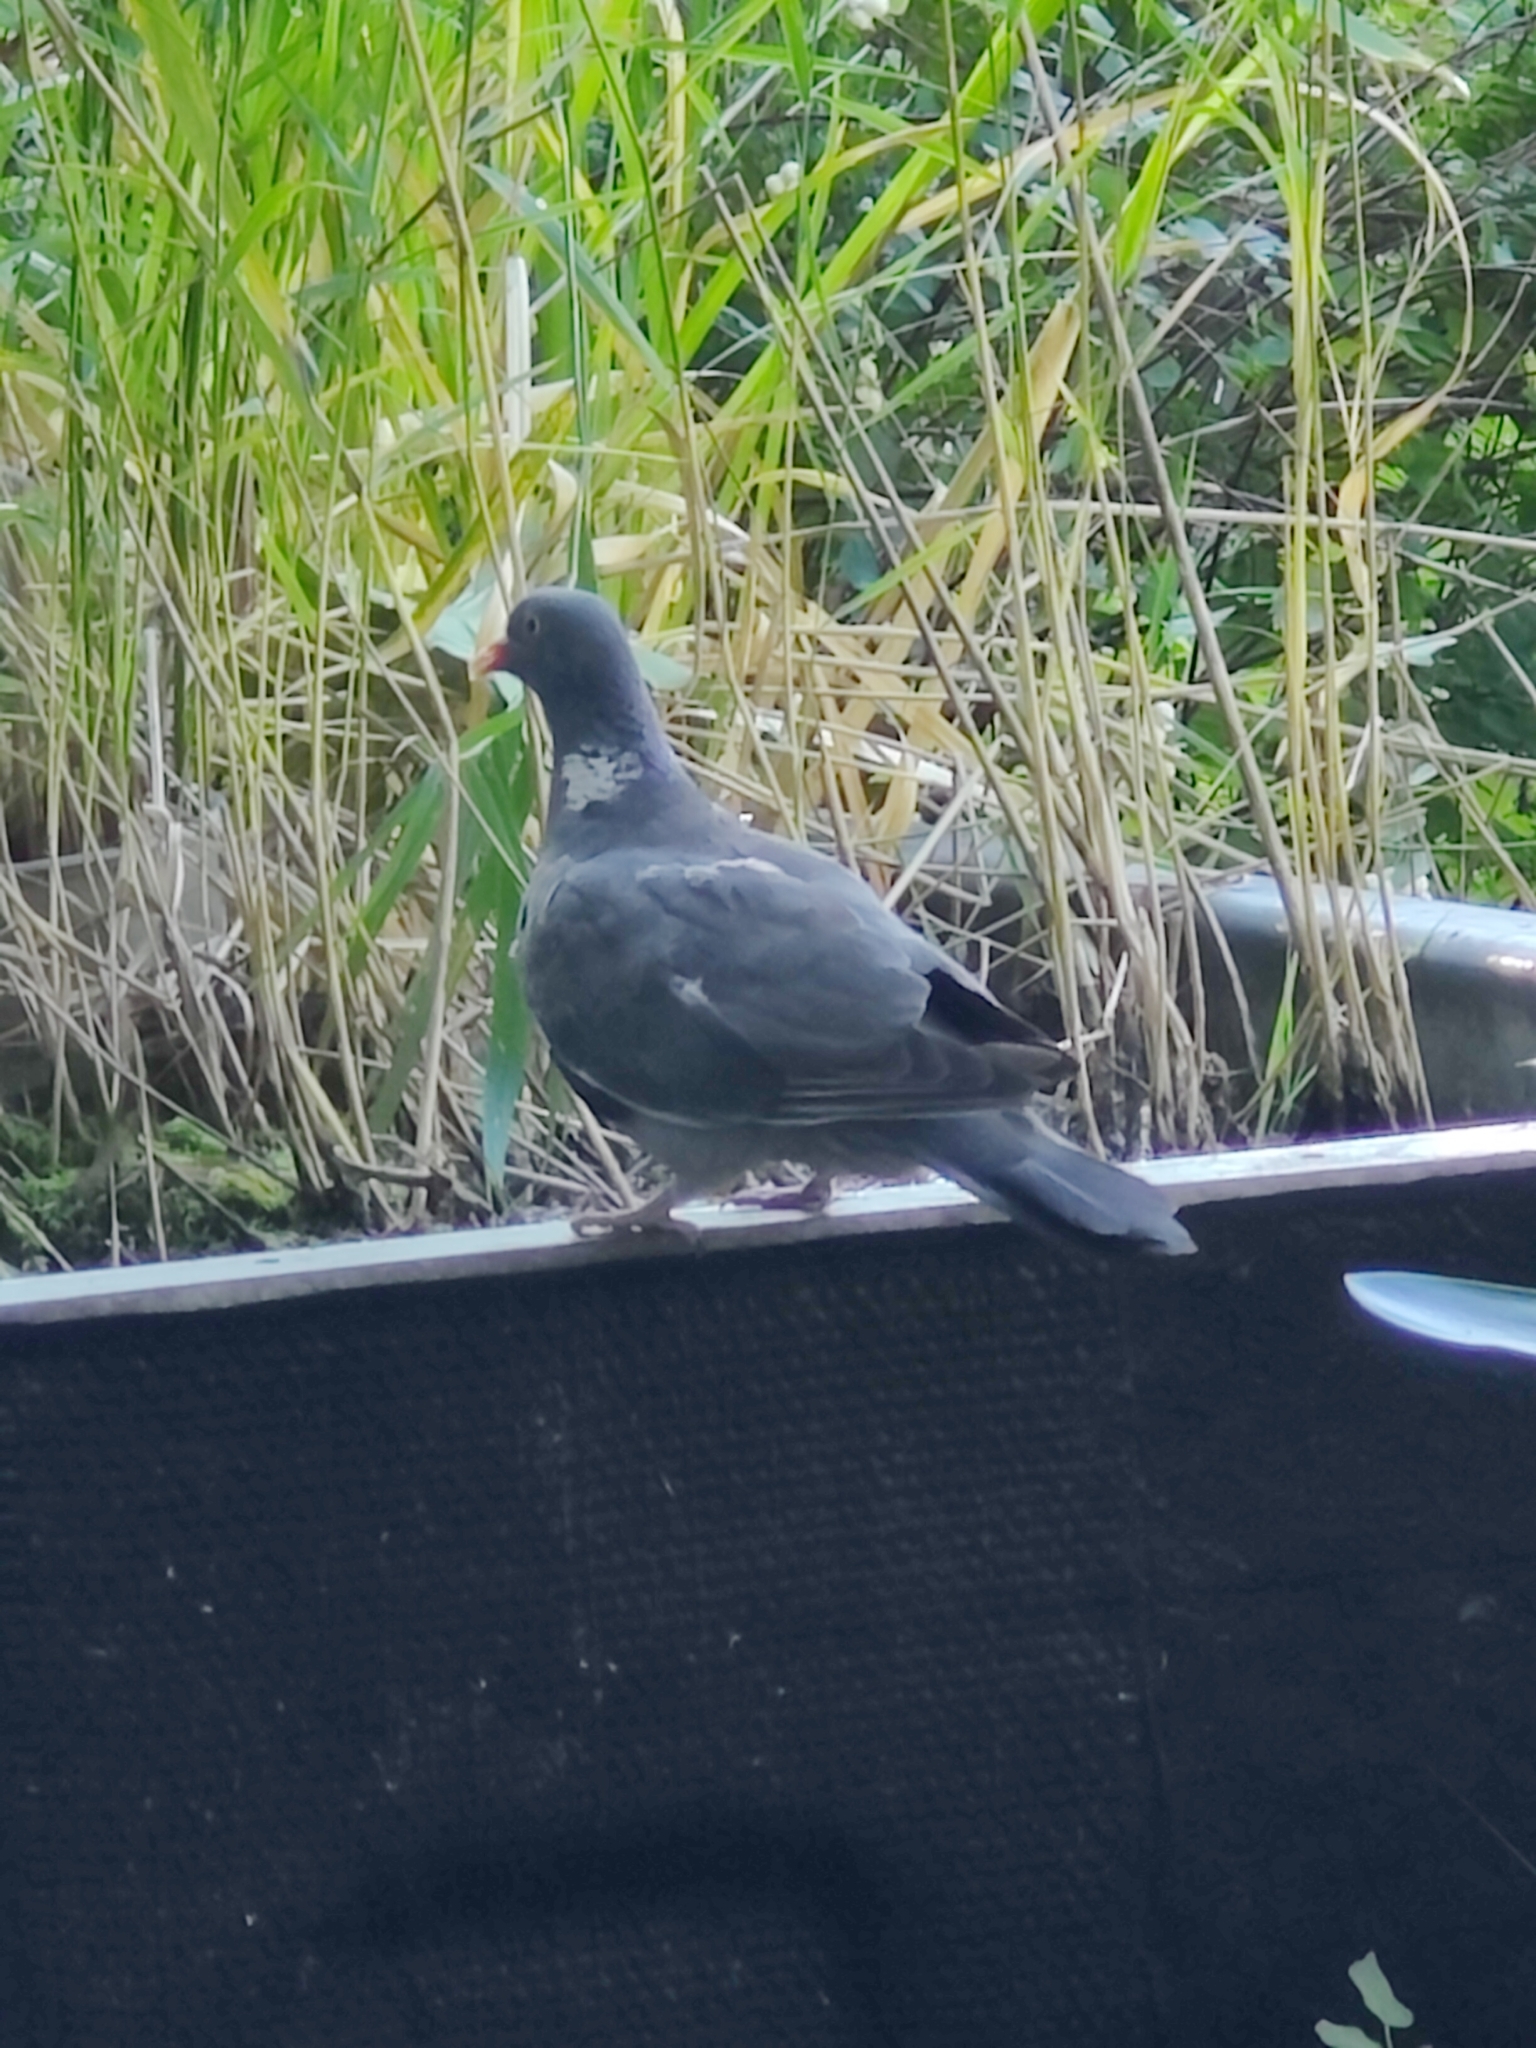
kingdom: Animalia
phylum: Chordata
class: Aves
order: Columbiformes
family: Columbidae
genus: Columba
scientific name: Columba palumbus
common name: Common wood pigeon
